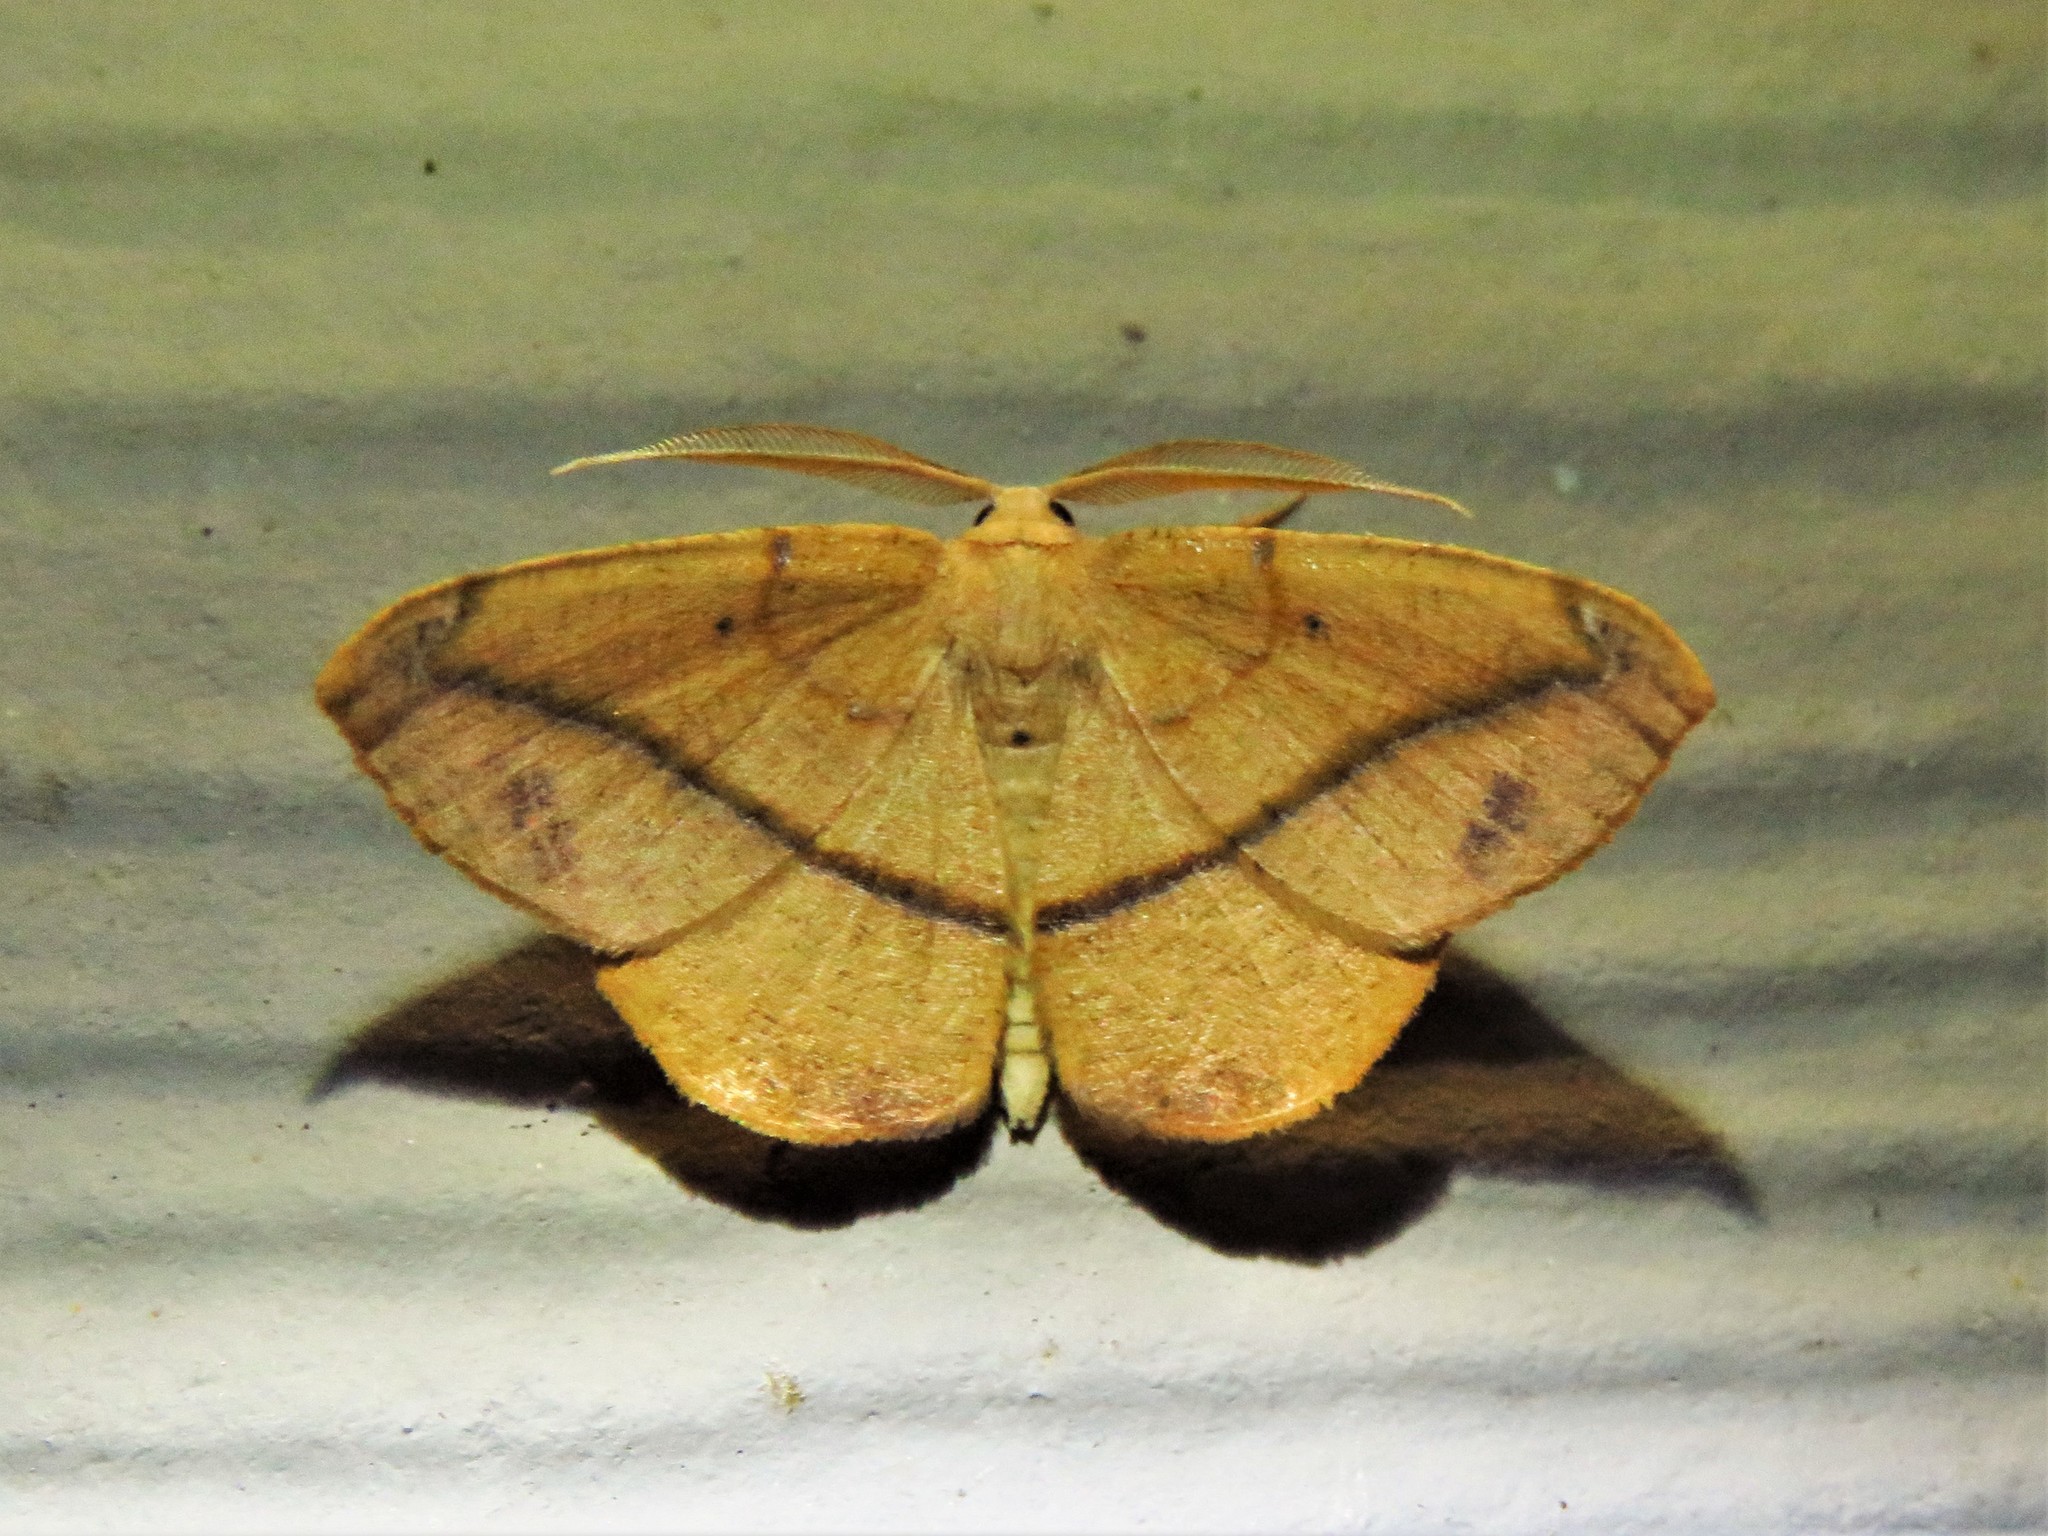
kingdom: Animalia
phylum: Arthropoda
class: Insecta
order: Lepidoptera
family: Geometridae
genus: Patalene
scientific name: Patalene olyzonaria
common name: Juniper geometer moth
